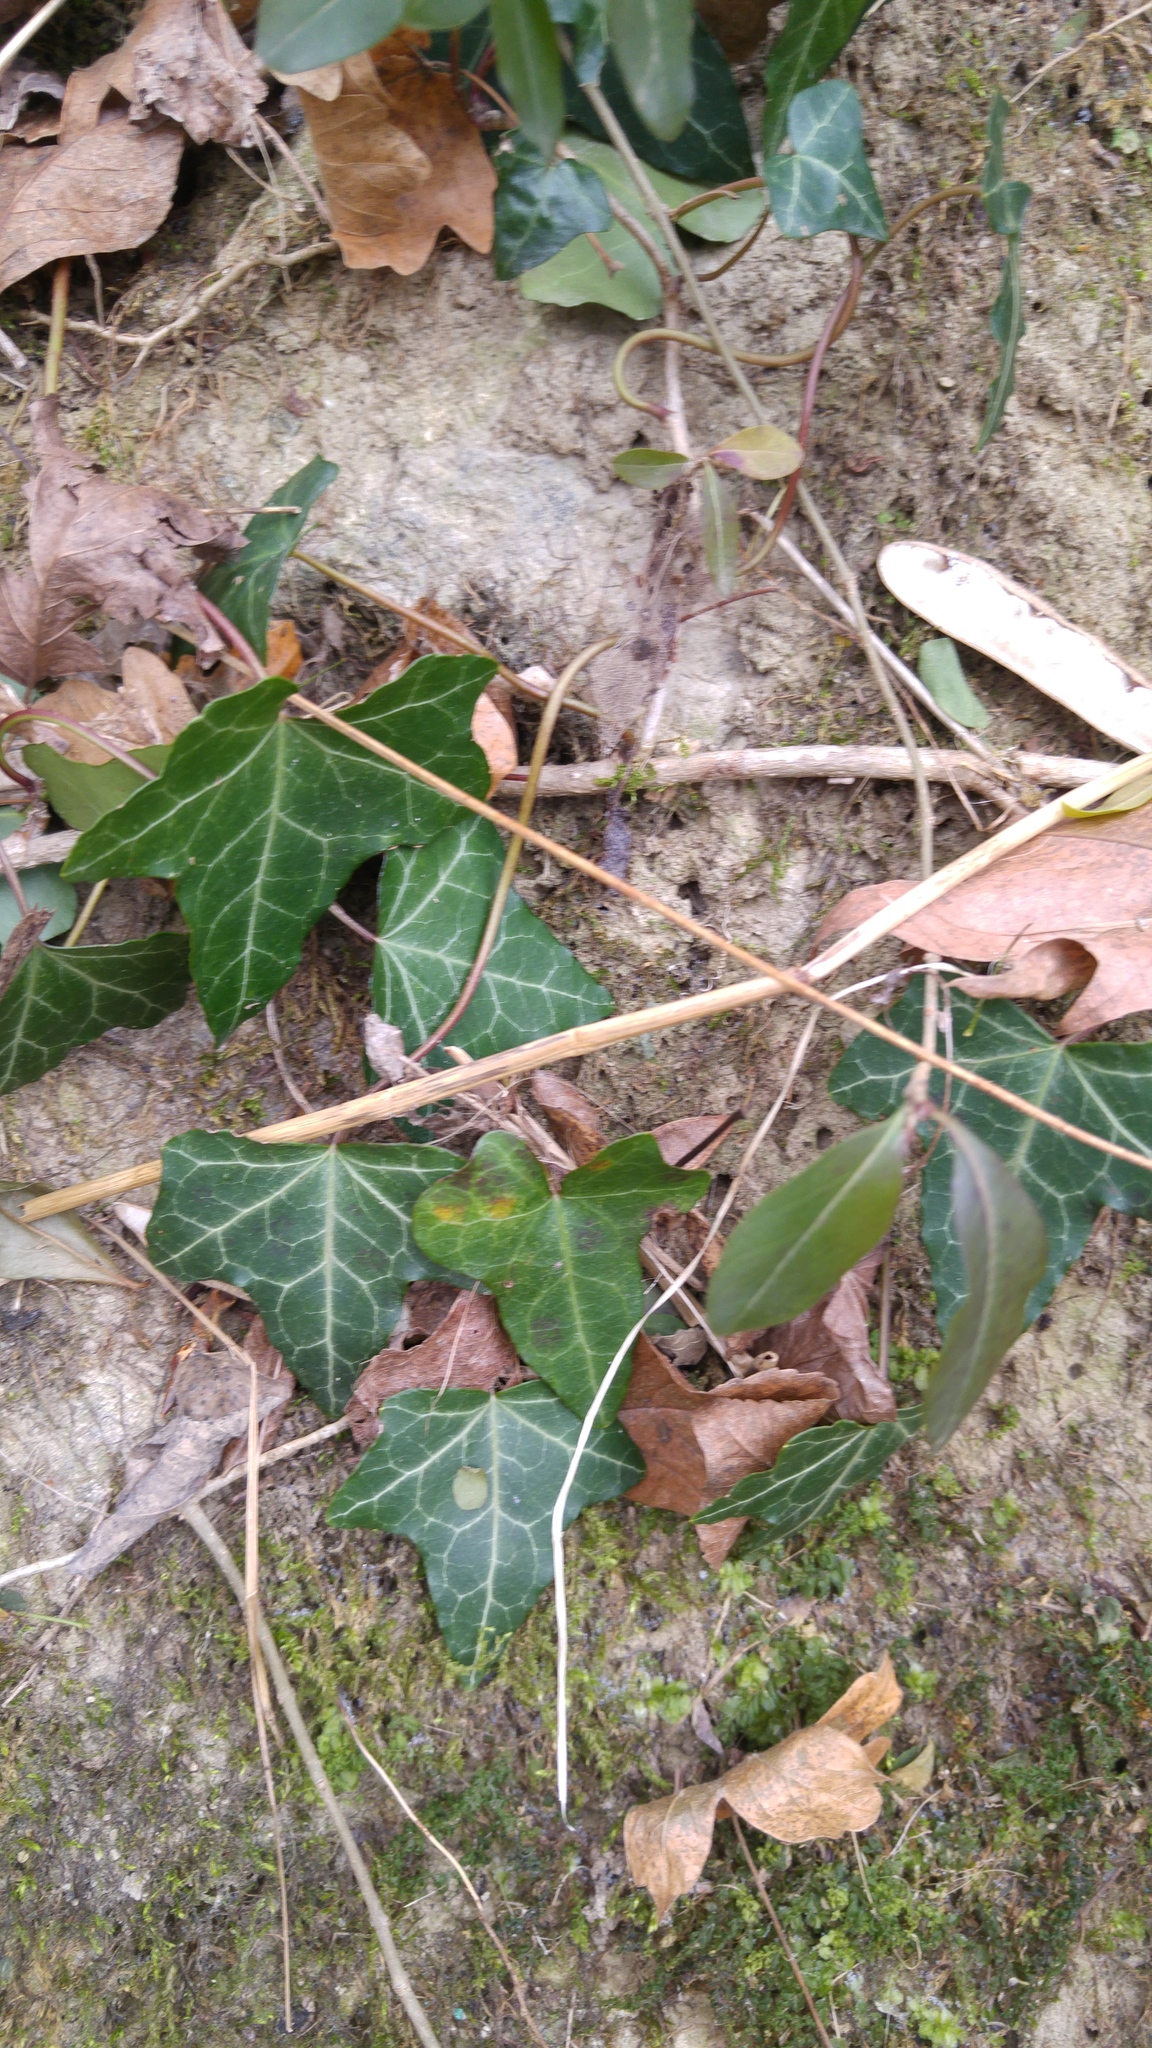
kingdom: Plantae
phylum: Tracheophyta
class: Magnoliopsida
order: Apiales
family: Araliaceae
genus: Hedera
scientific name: Hedera helix
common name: Ivy
